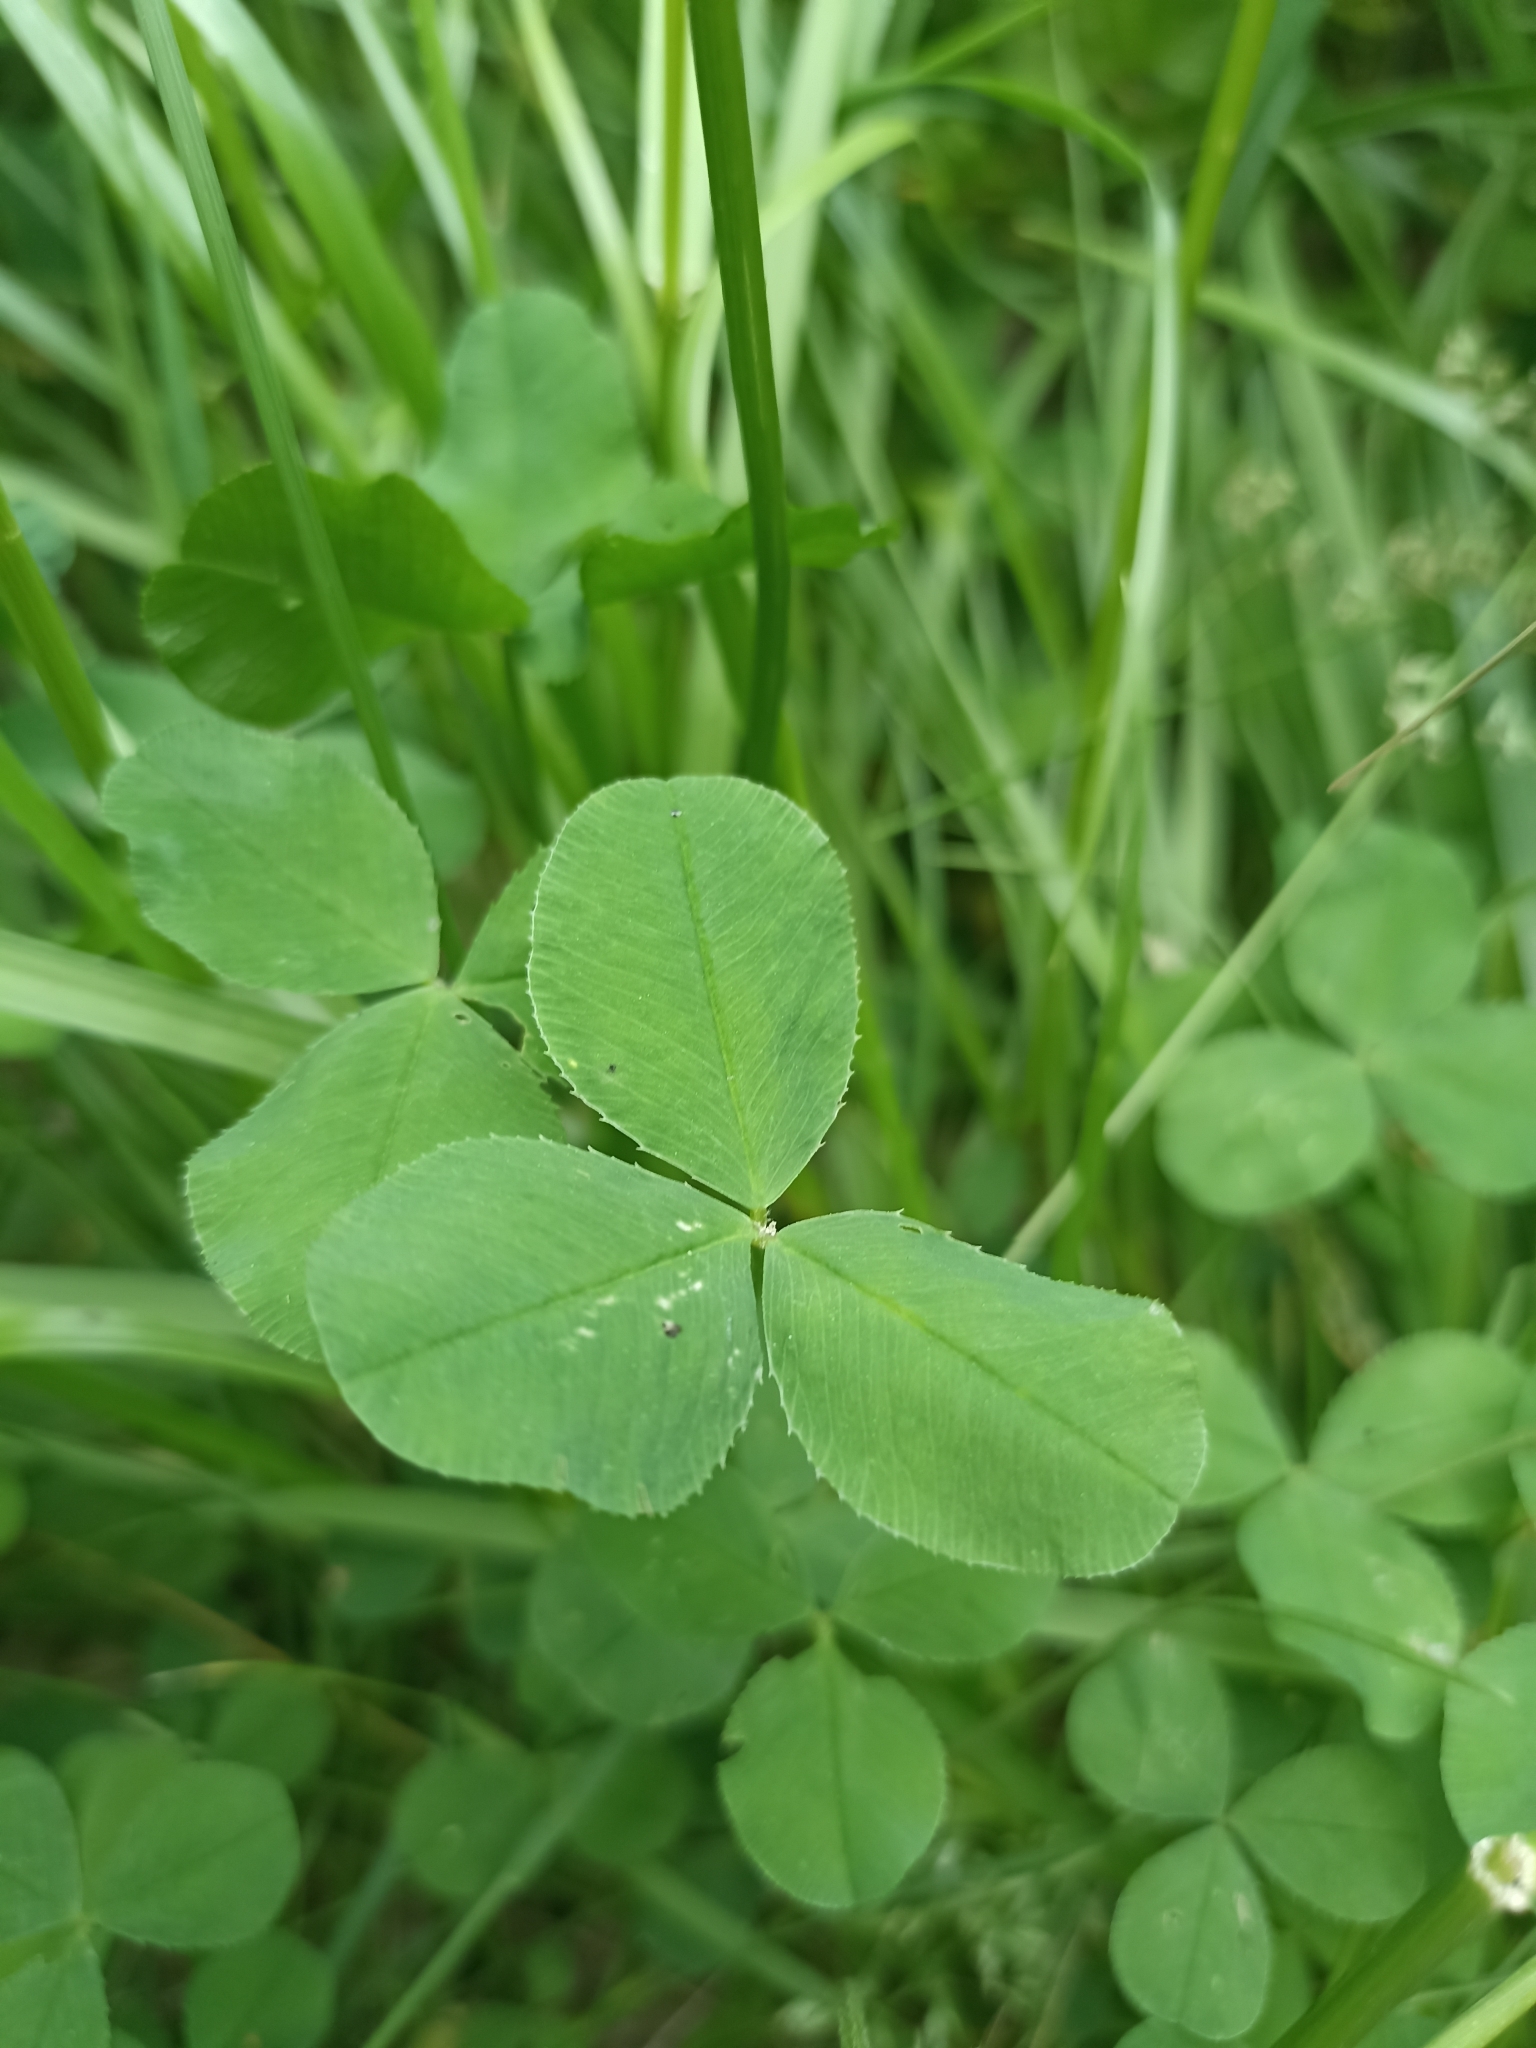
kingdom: Plantae
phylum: Tracheophyta
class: Magnoliopsida
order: Fabales
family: Fabaceae
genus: Trifolium
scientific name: Trifolium repens
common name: White clover
